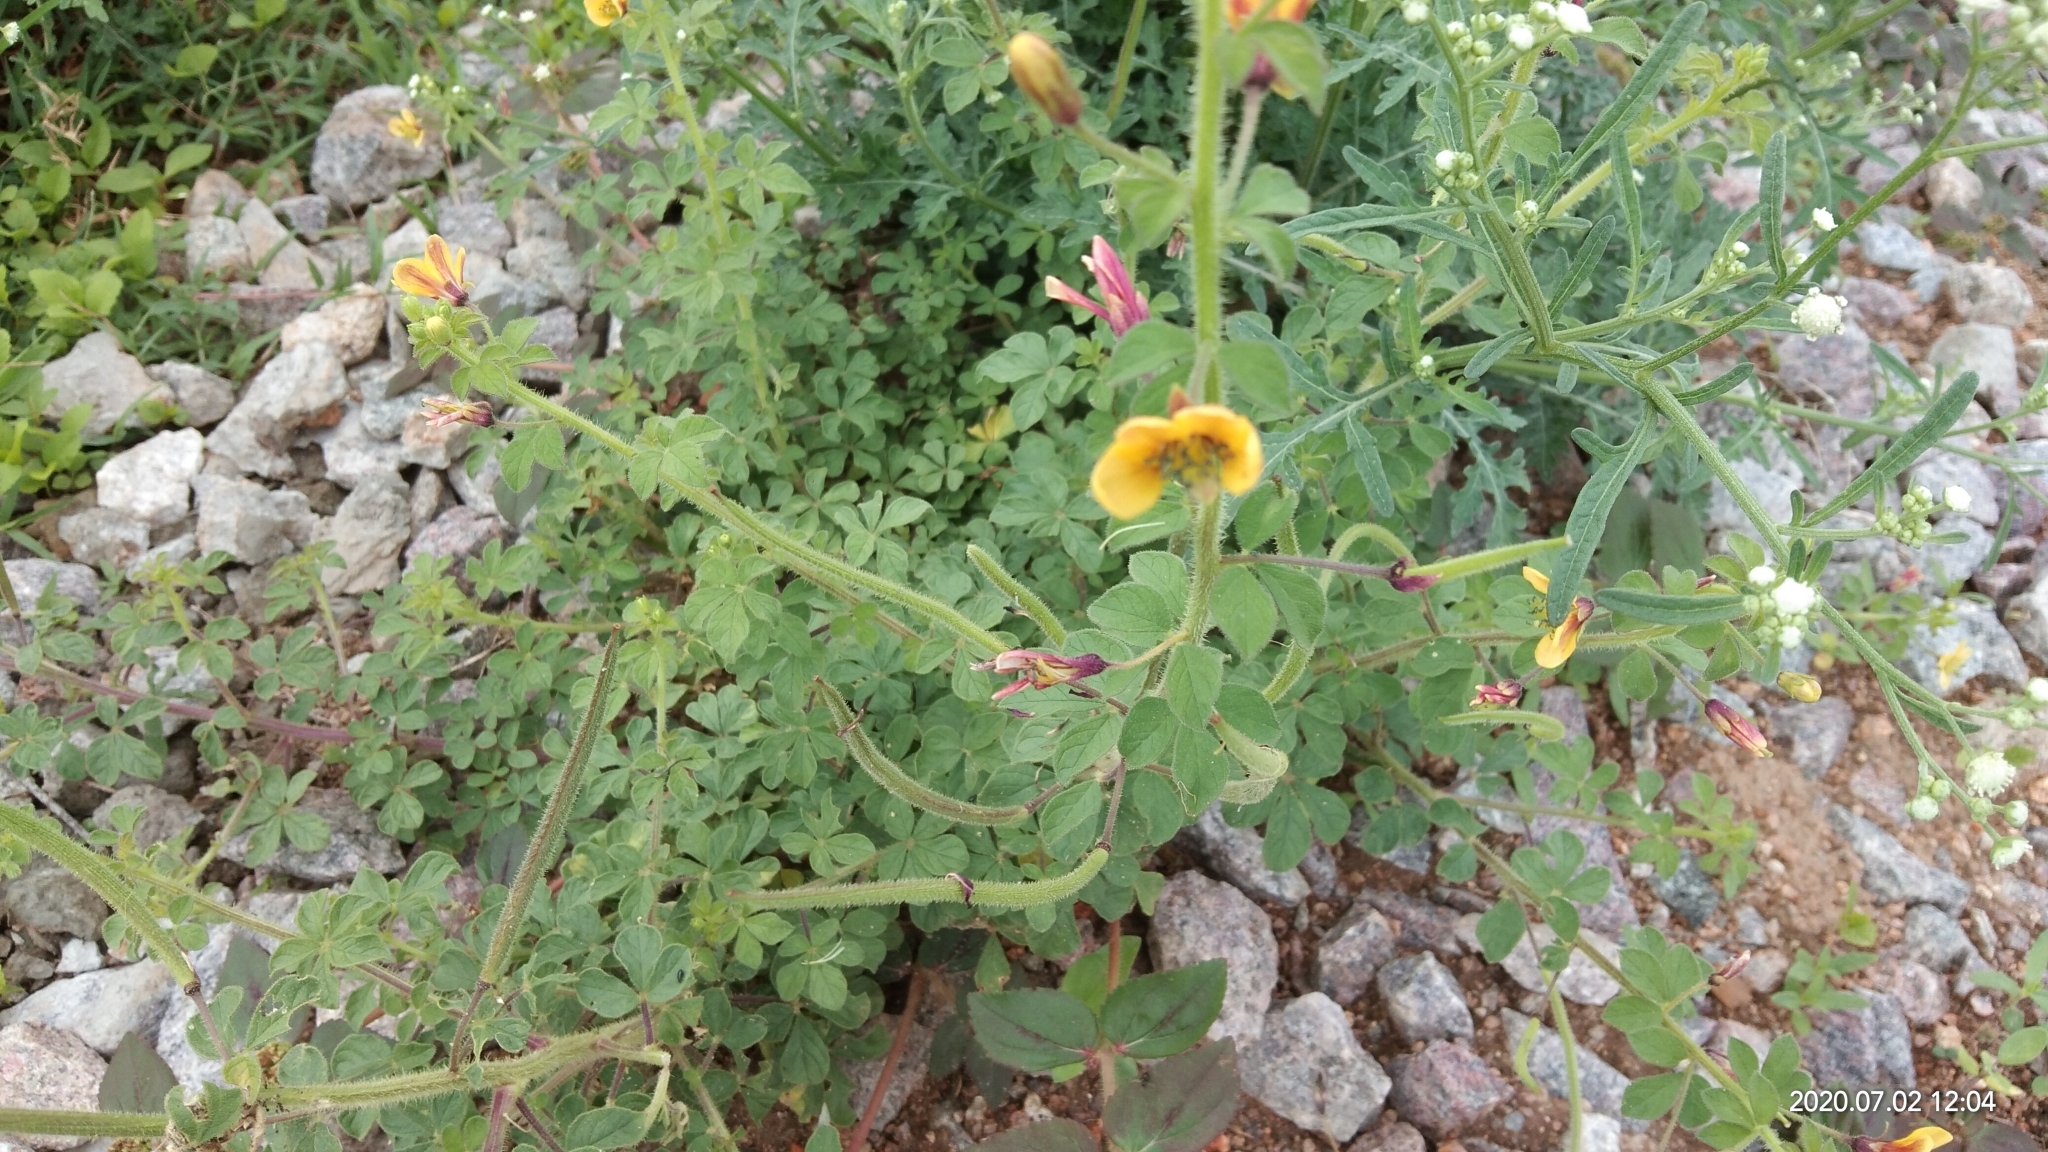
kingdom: Plantae
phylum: Tracheophyta
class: Magnoliopsida
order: Brassicales
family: Cleomaceae
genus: Arivela
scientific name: Arivela viscosa
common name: Asian spiderflower
